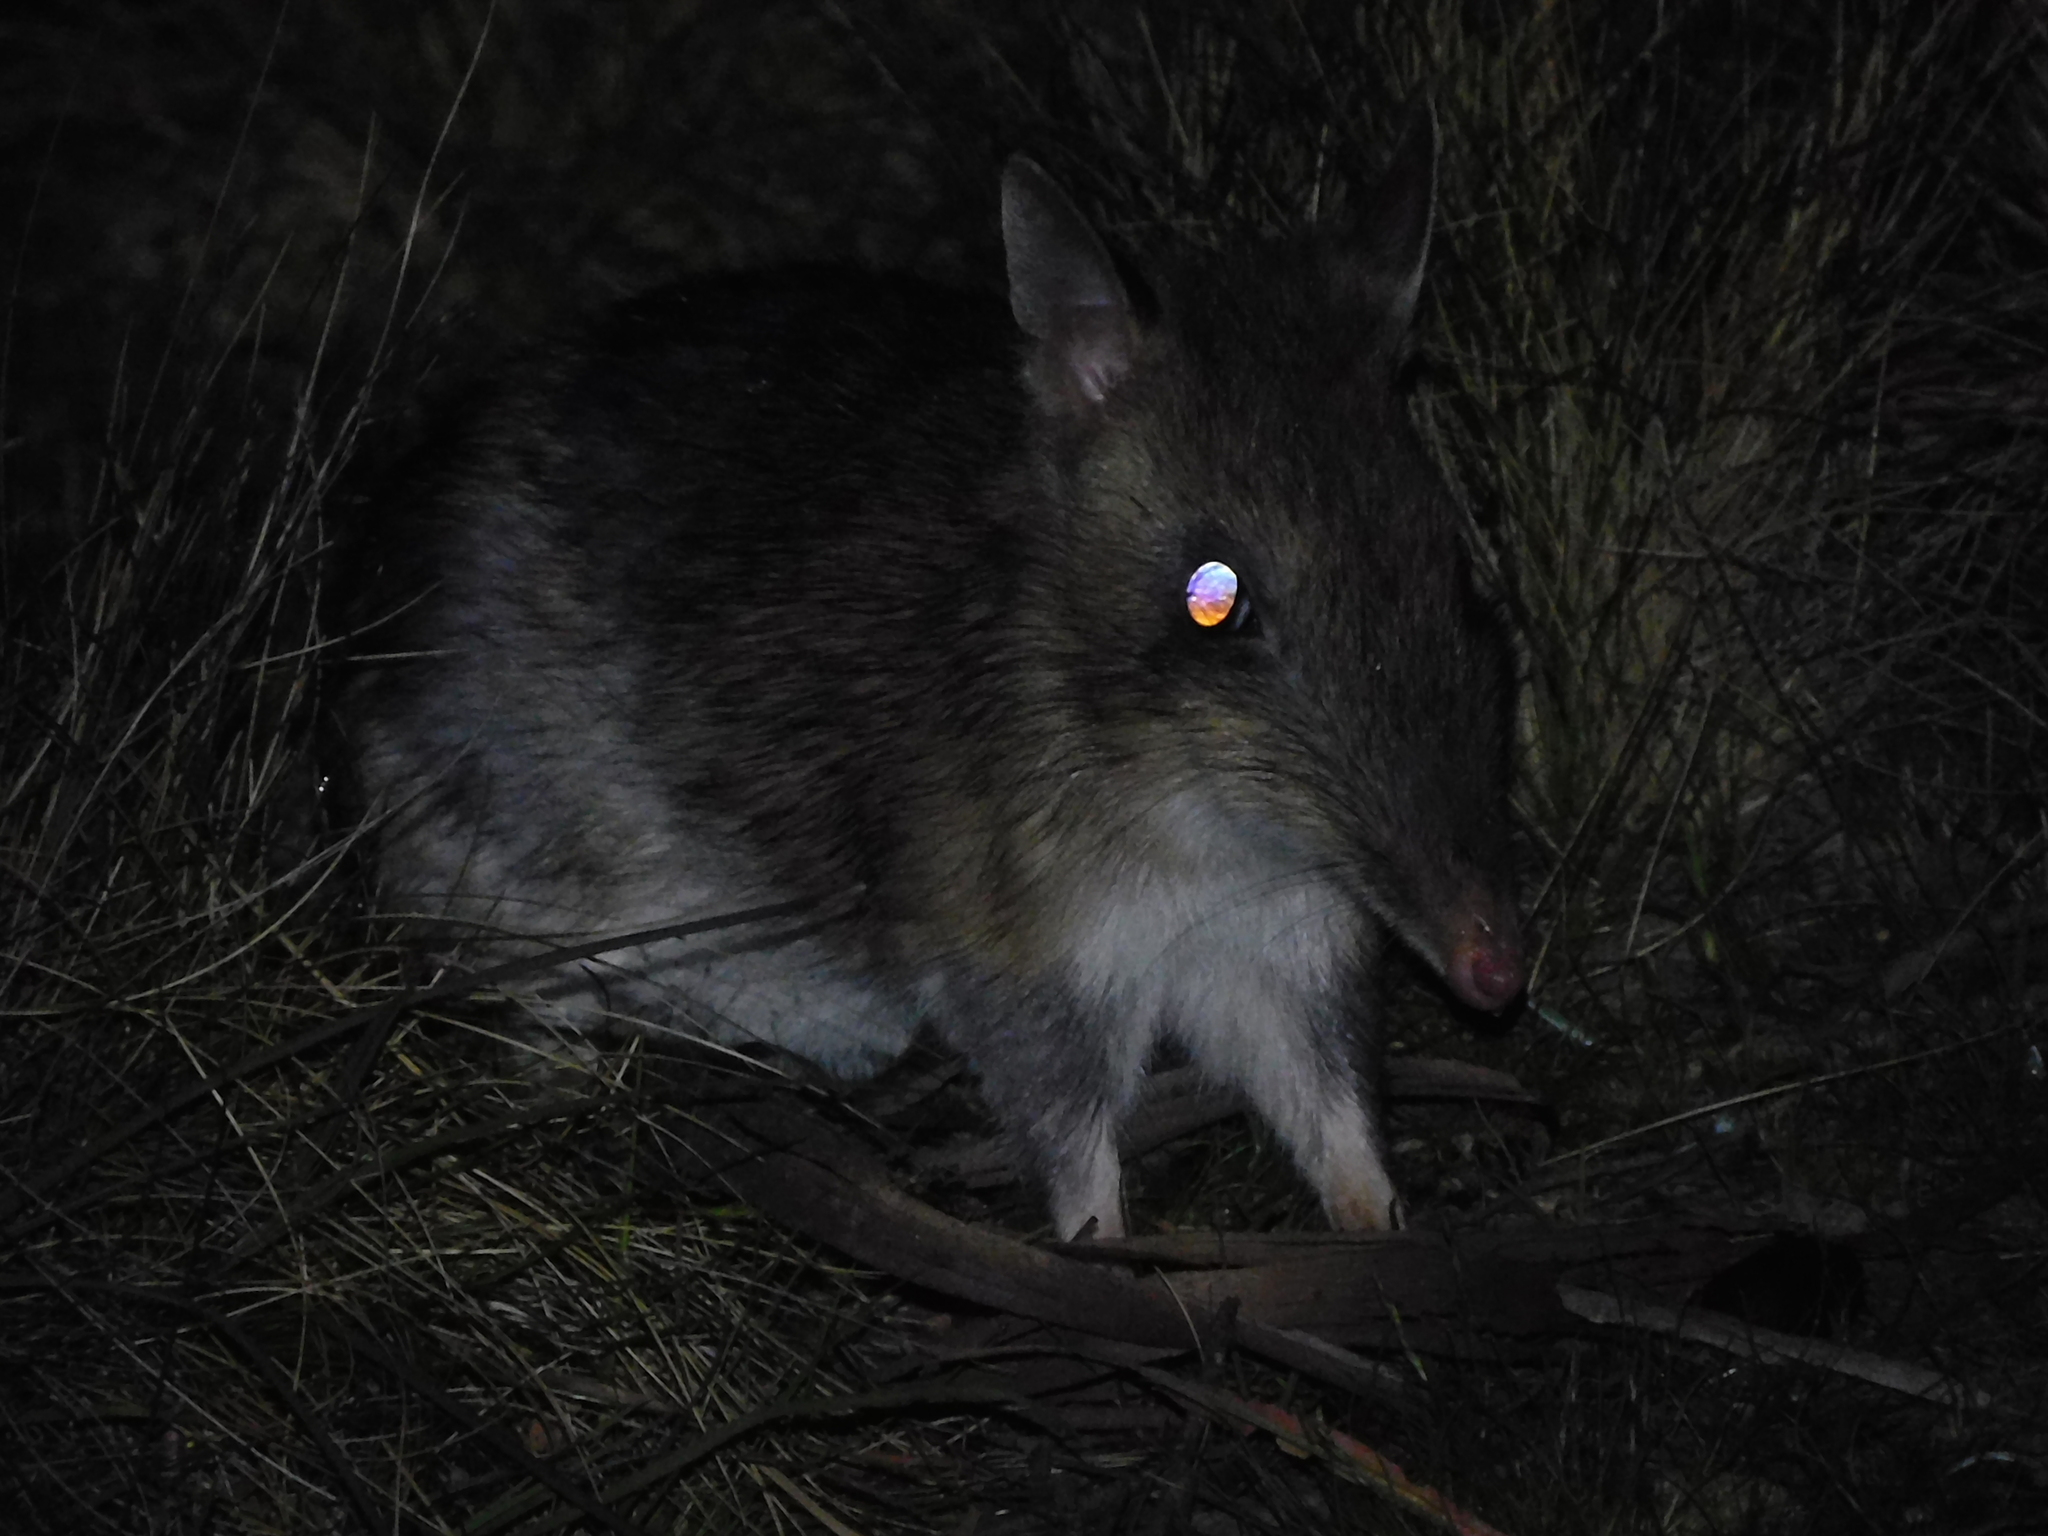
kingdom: Animalia
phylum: Chordata
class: Mammalia
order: Peramelemorphia
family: Peramelidae
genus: Perameles
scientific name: Perameles gunnii
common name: Eastern barred bandicoot
